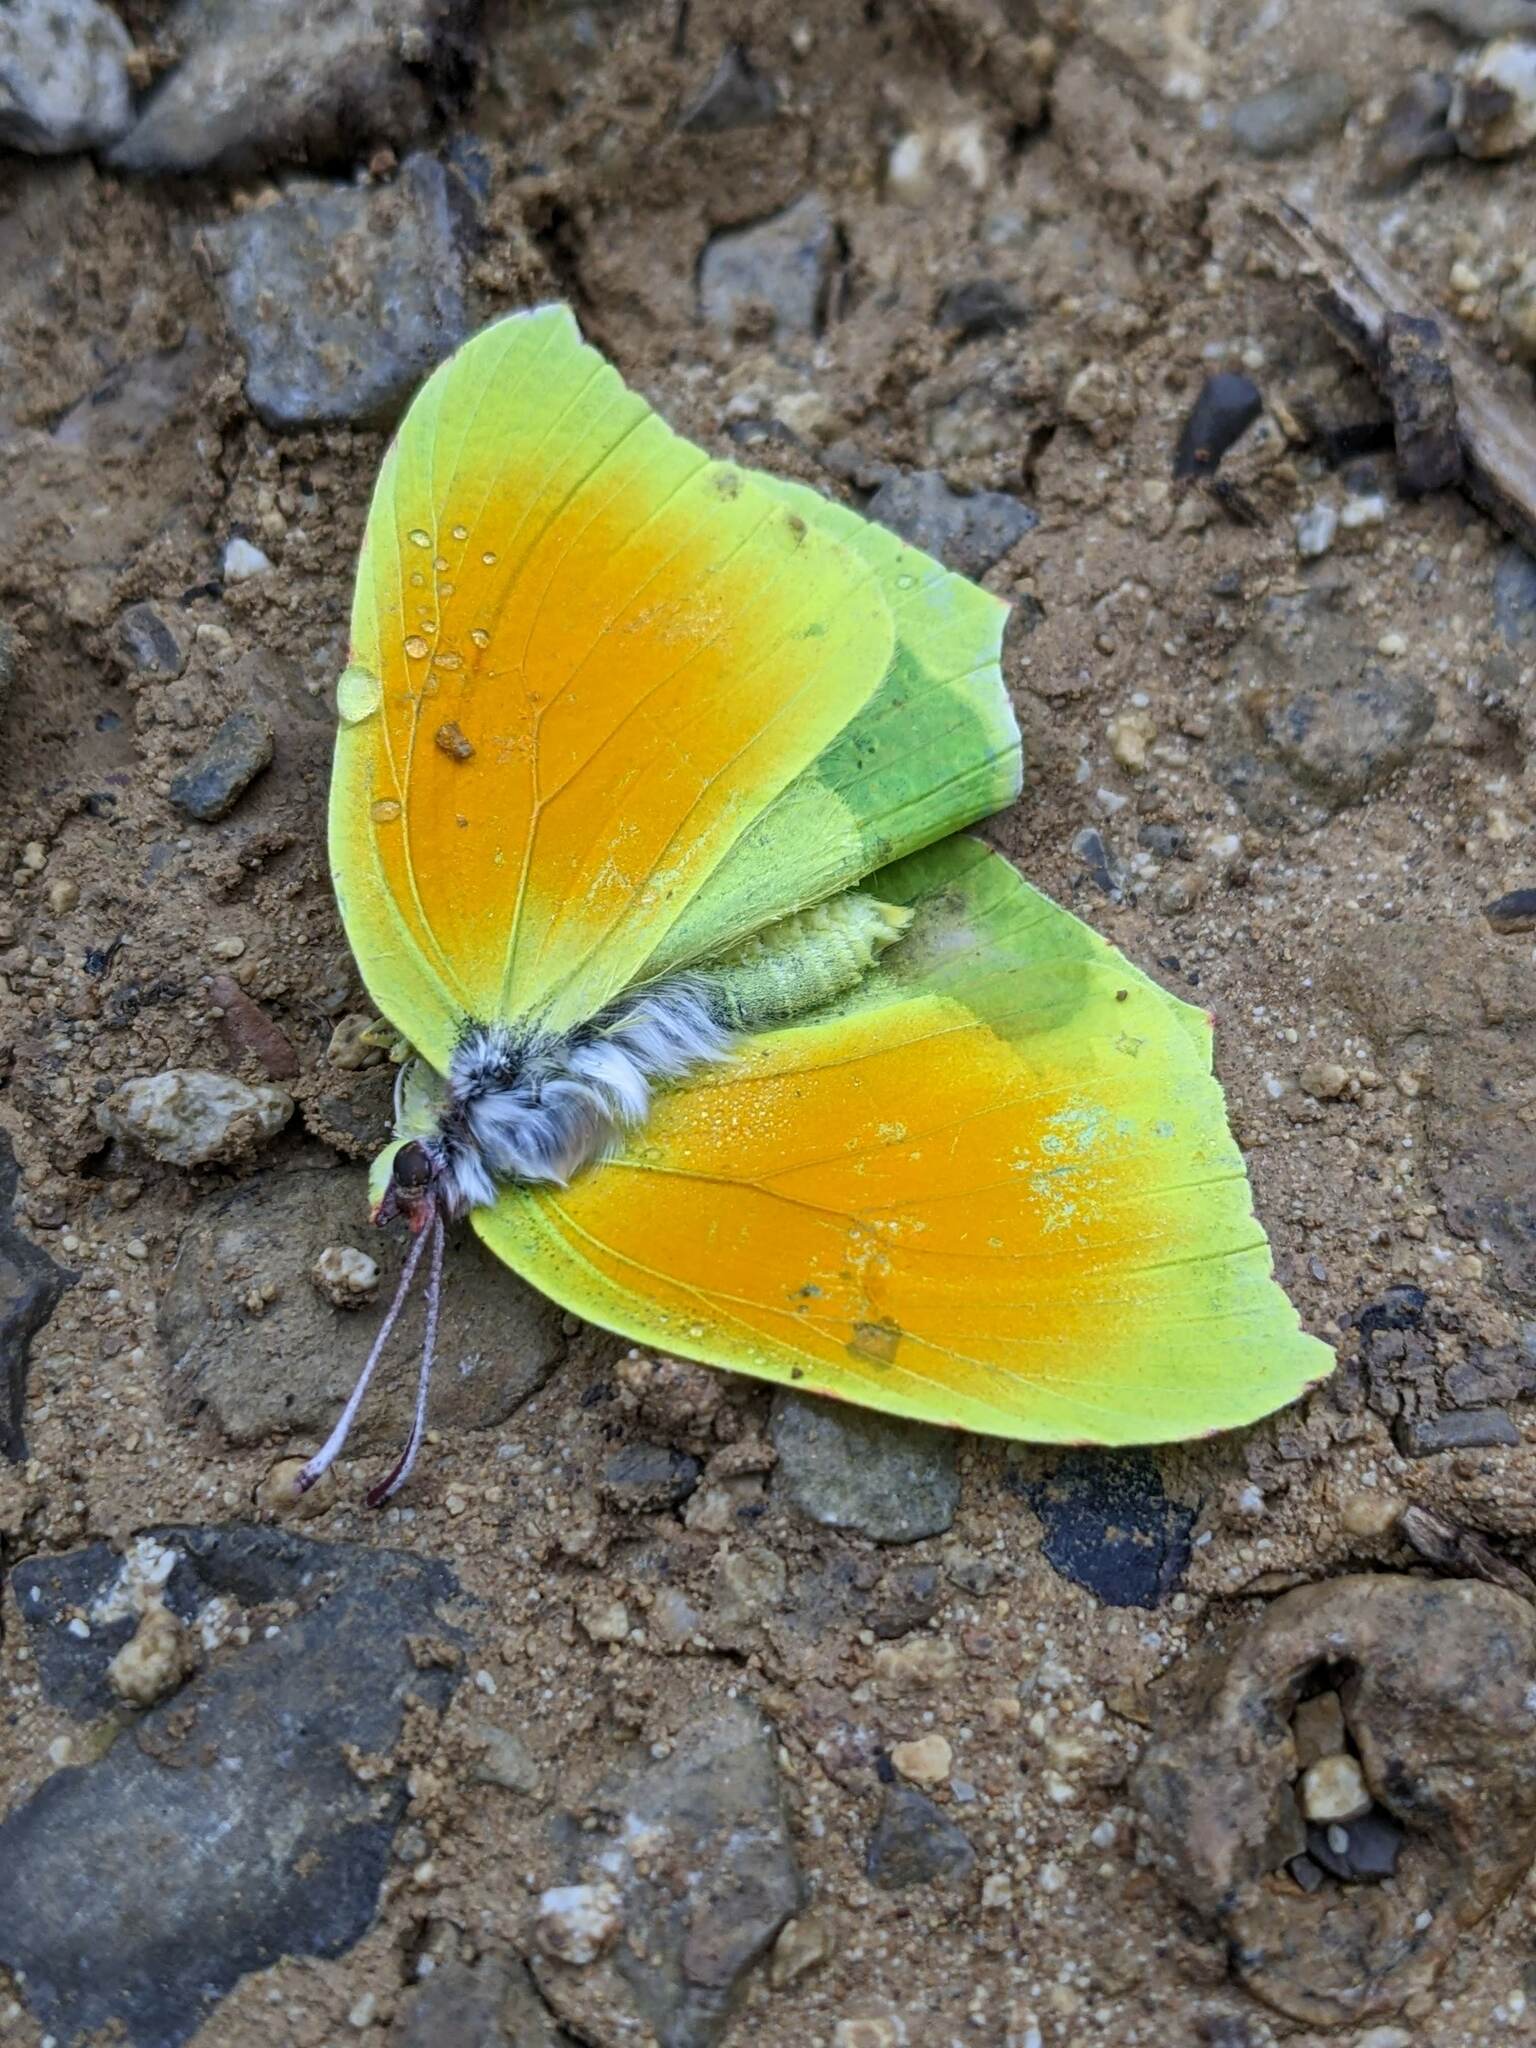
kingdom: Animalia
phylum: Arthropoda
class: Insecta
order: Lepidoptera
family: Pieridae
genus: Gonepteryx
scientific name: Gonepteryx cleopatra
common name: Cleopatra
